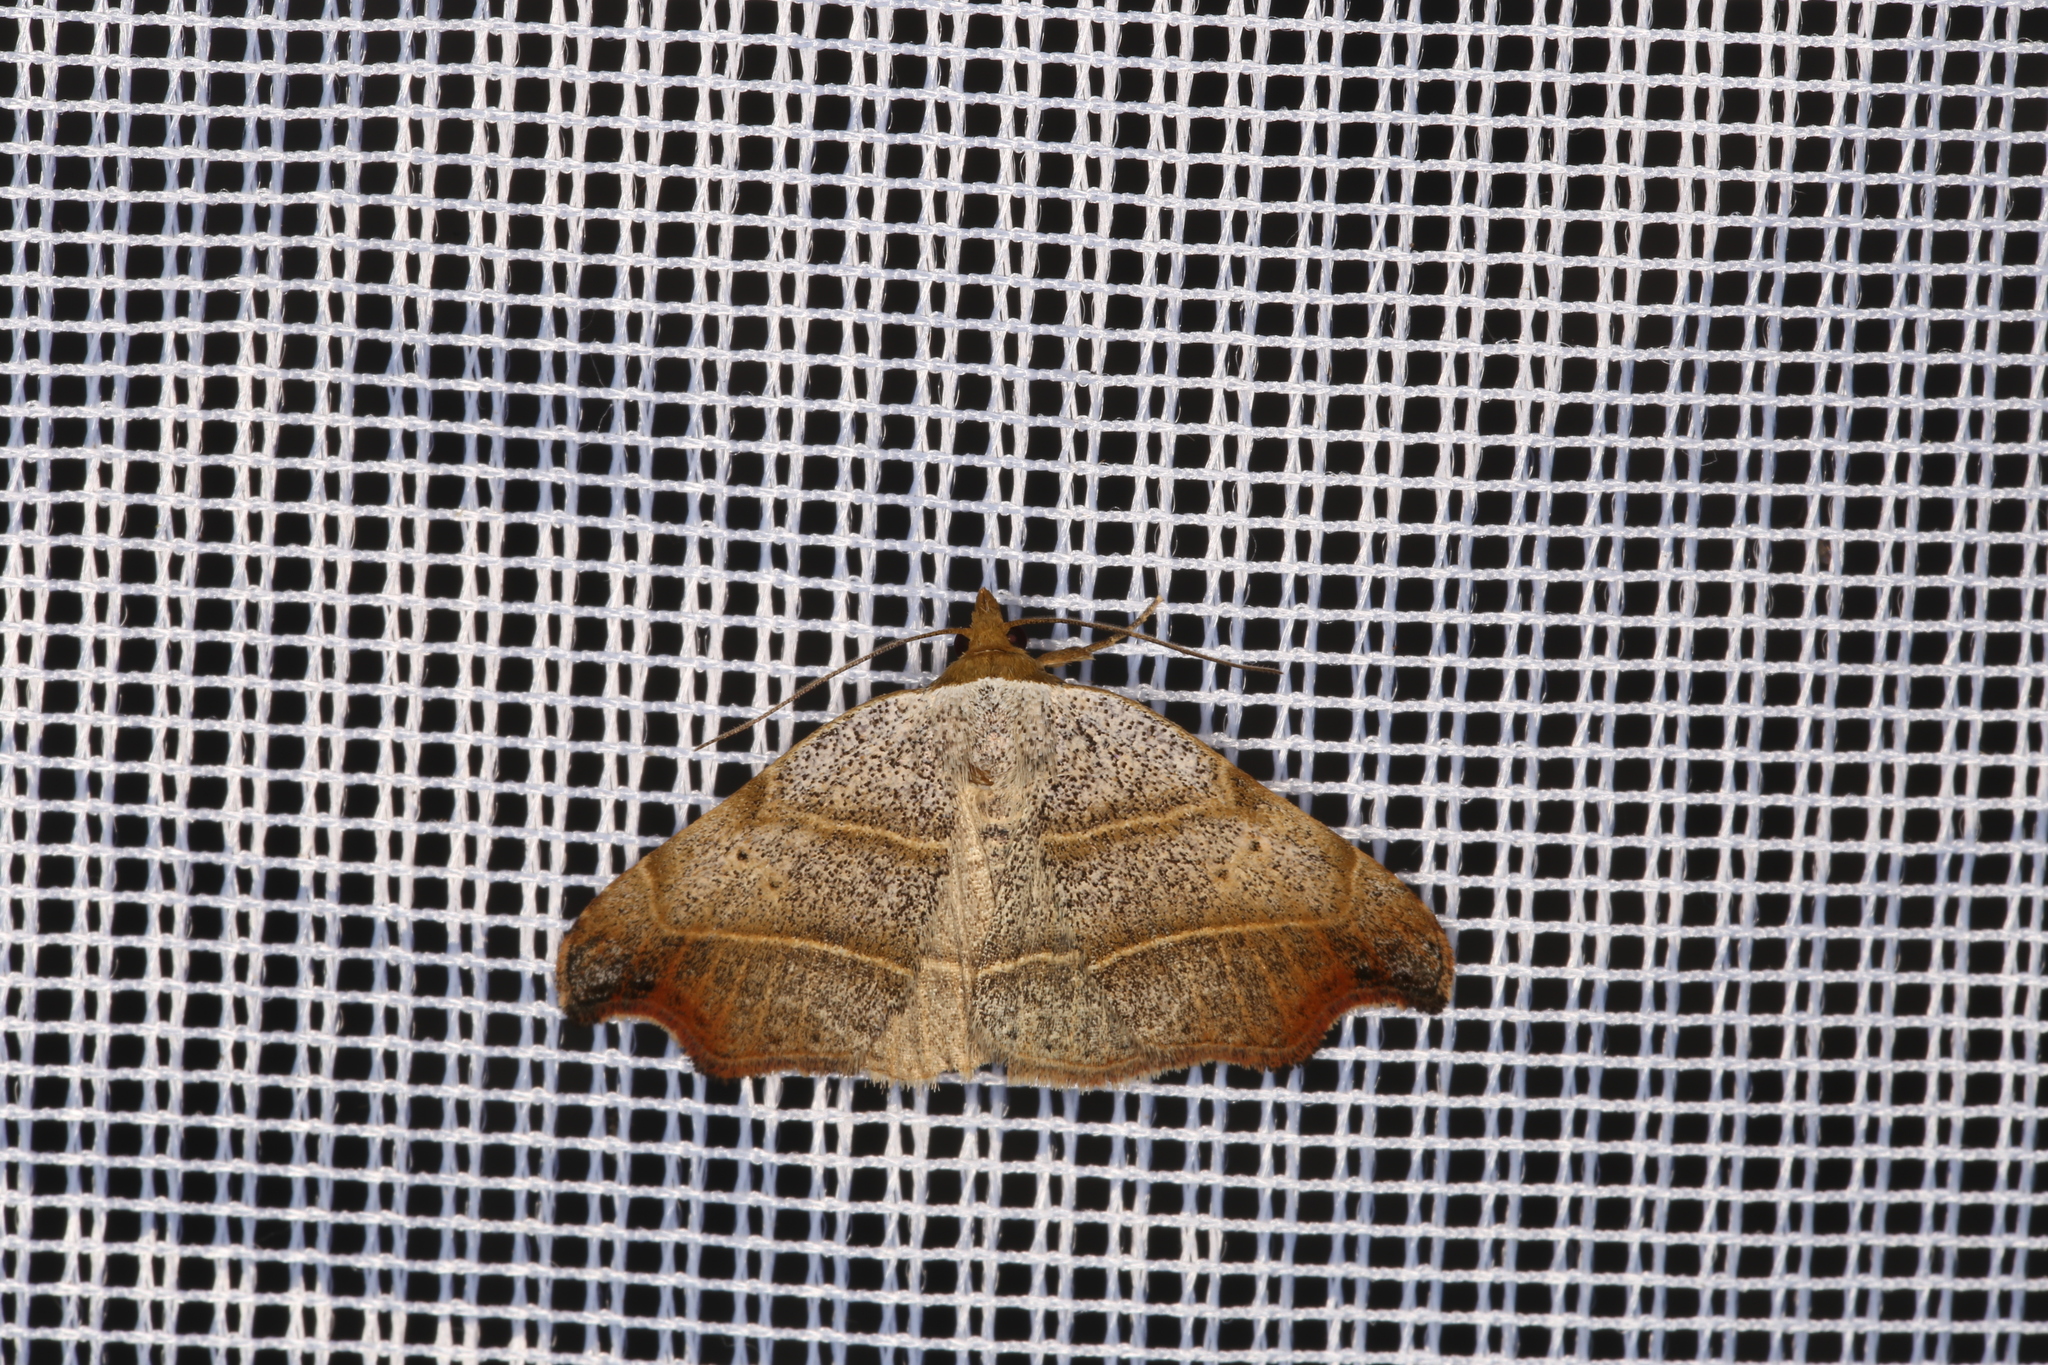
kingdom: Animalia
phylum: Arthropoda
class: Insecta
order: Lepidoptera
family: Erebidae
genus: Laspeyria
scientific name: Laspeyria flexula
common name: Beautiful hook-tip
